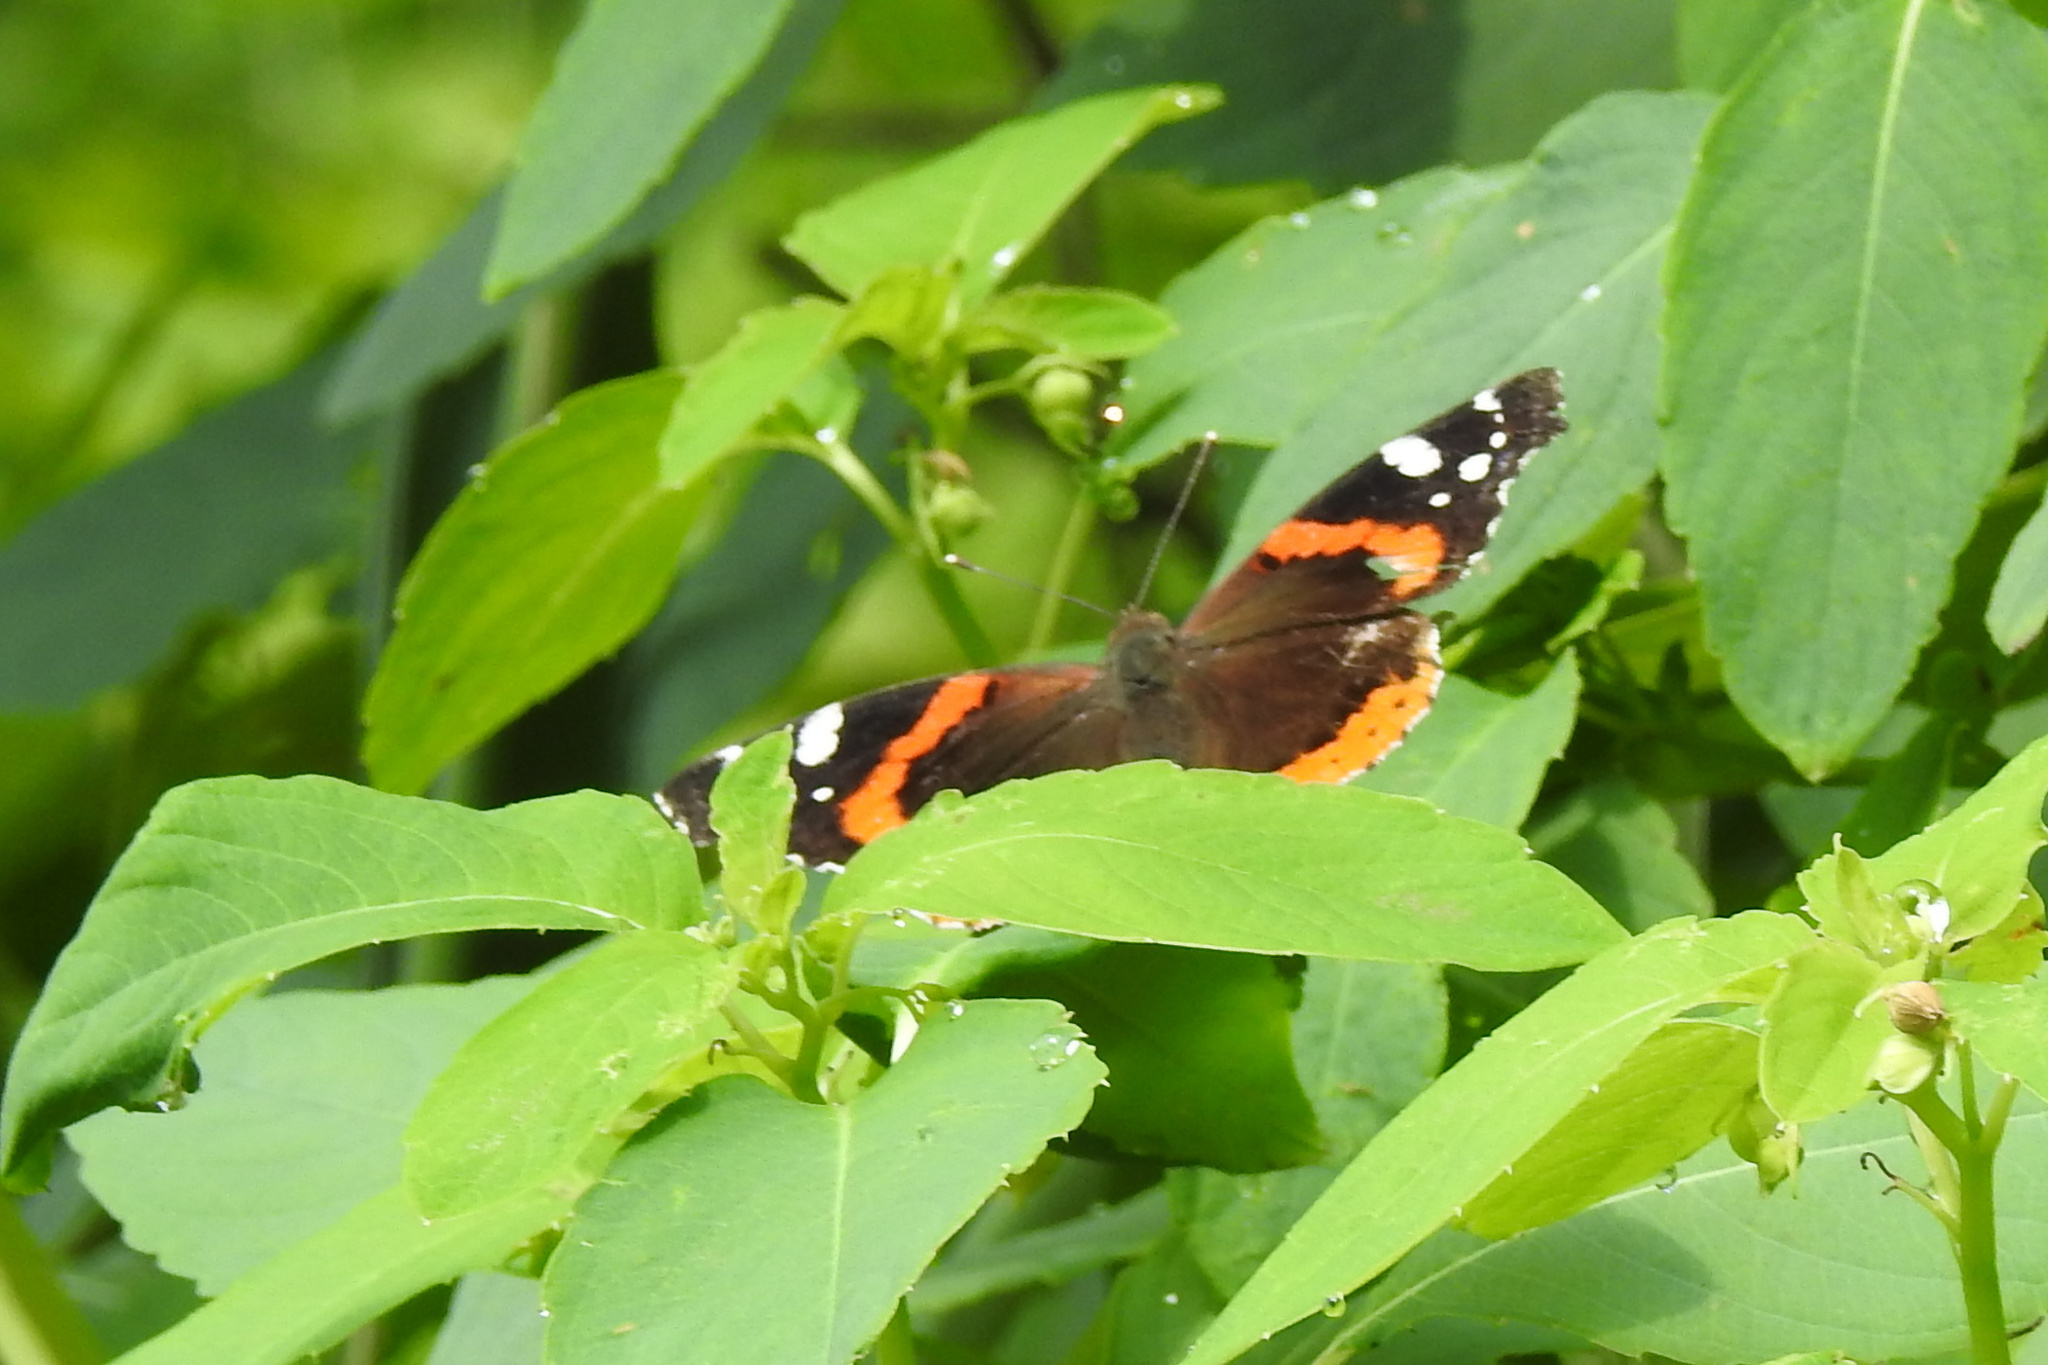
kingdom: Animalia
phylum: Arthropoda
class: Insecta
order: Lepidoptera
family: Nymphalidae
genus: Vanessa
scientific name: Vanessa atalanta
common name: Red admiral
